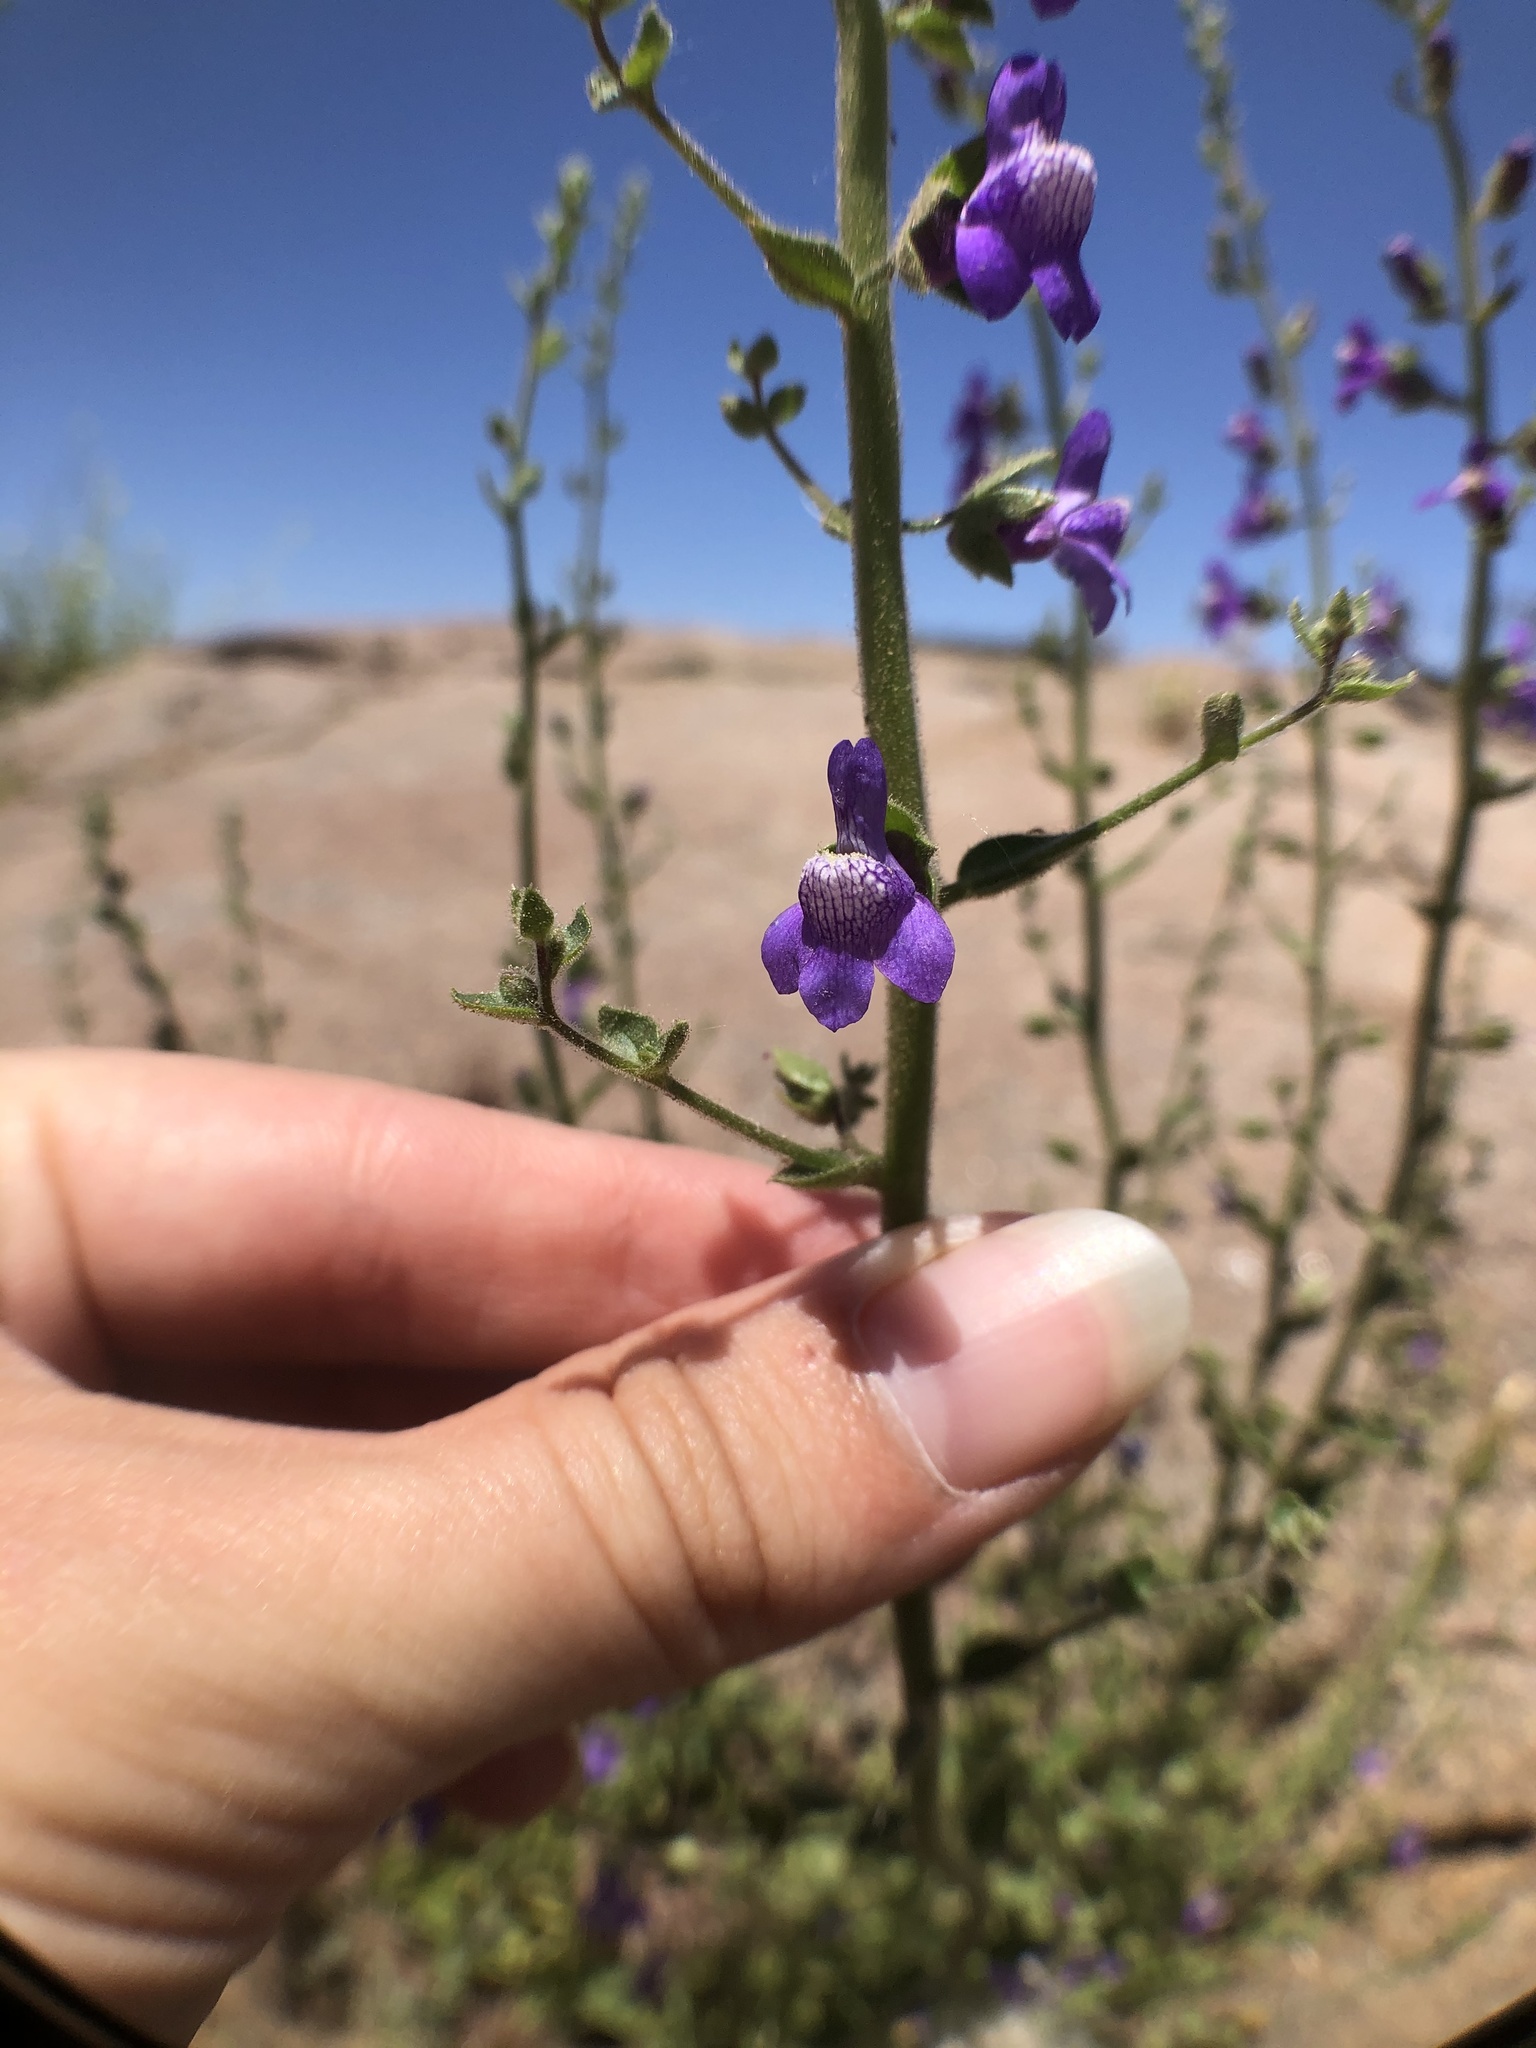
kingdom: Plantae
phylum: Tracheophyta
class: Magnoliopsida
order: Lamiales
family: Plantaginaceae
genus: Sairocarpus
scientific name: Sairocarpus nuttallianus
